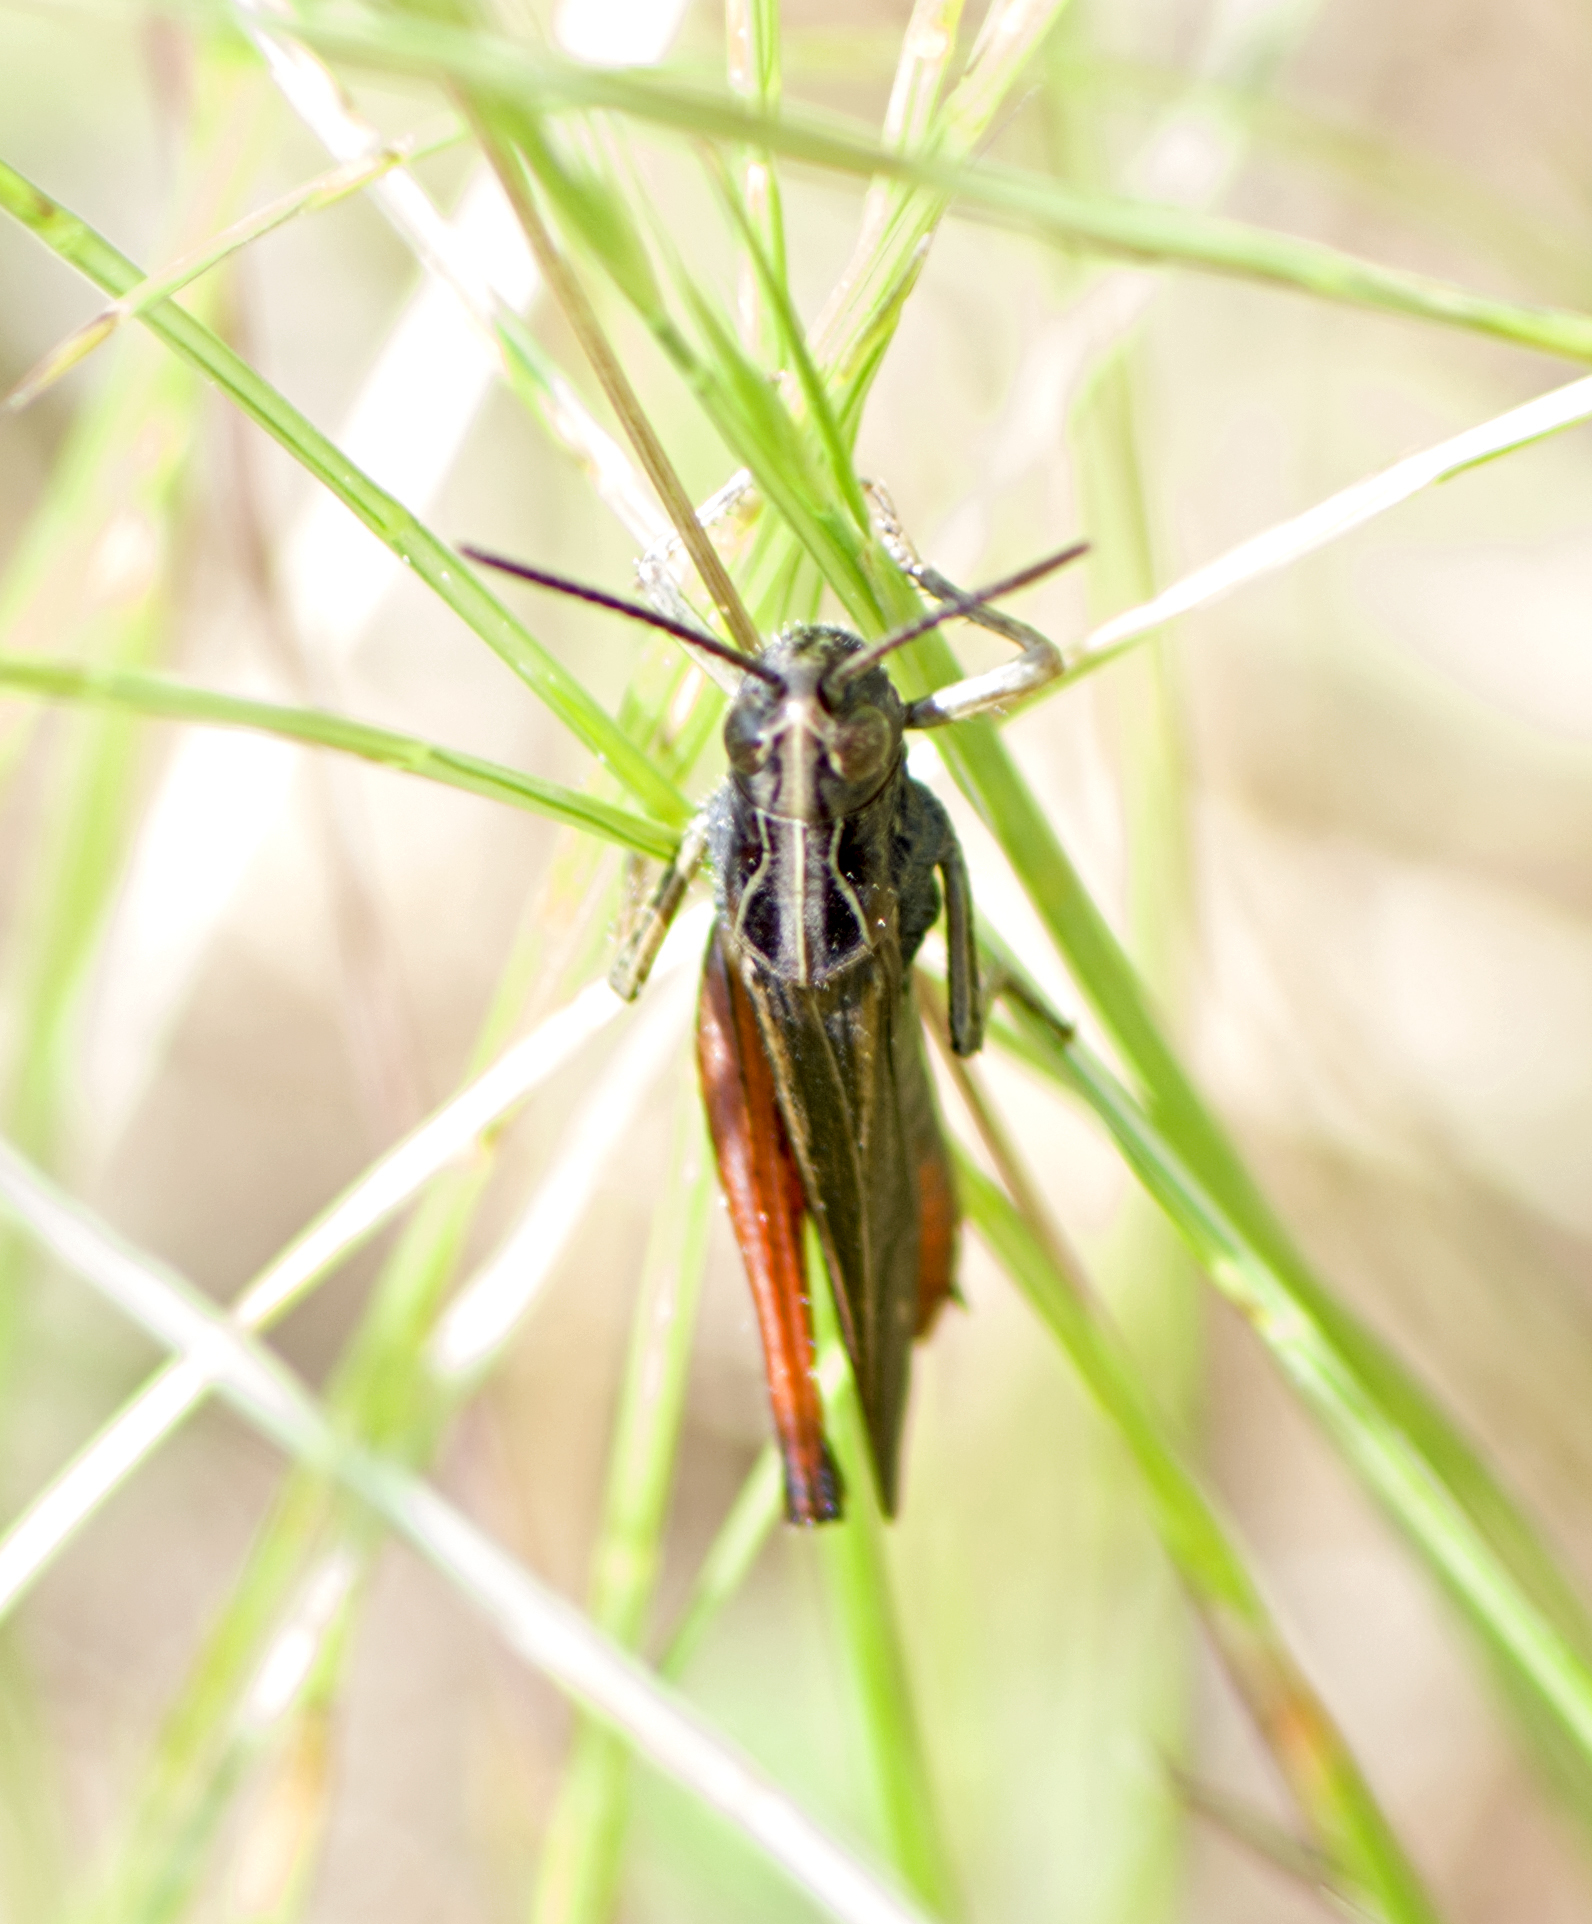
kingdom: Animalia
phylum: Arthropoda
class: Insecta
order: Orthoptera
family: Acrididae
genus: Omocestus
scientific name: Omocestus rufipes
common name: Woodland grasshopper
